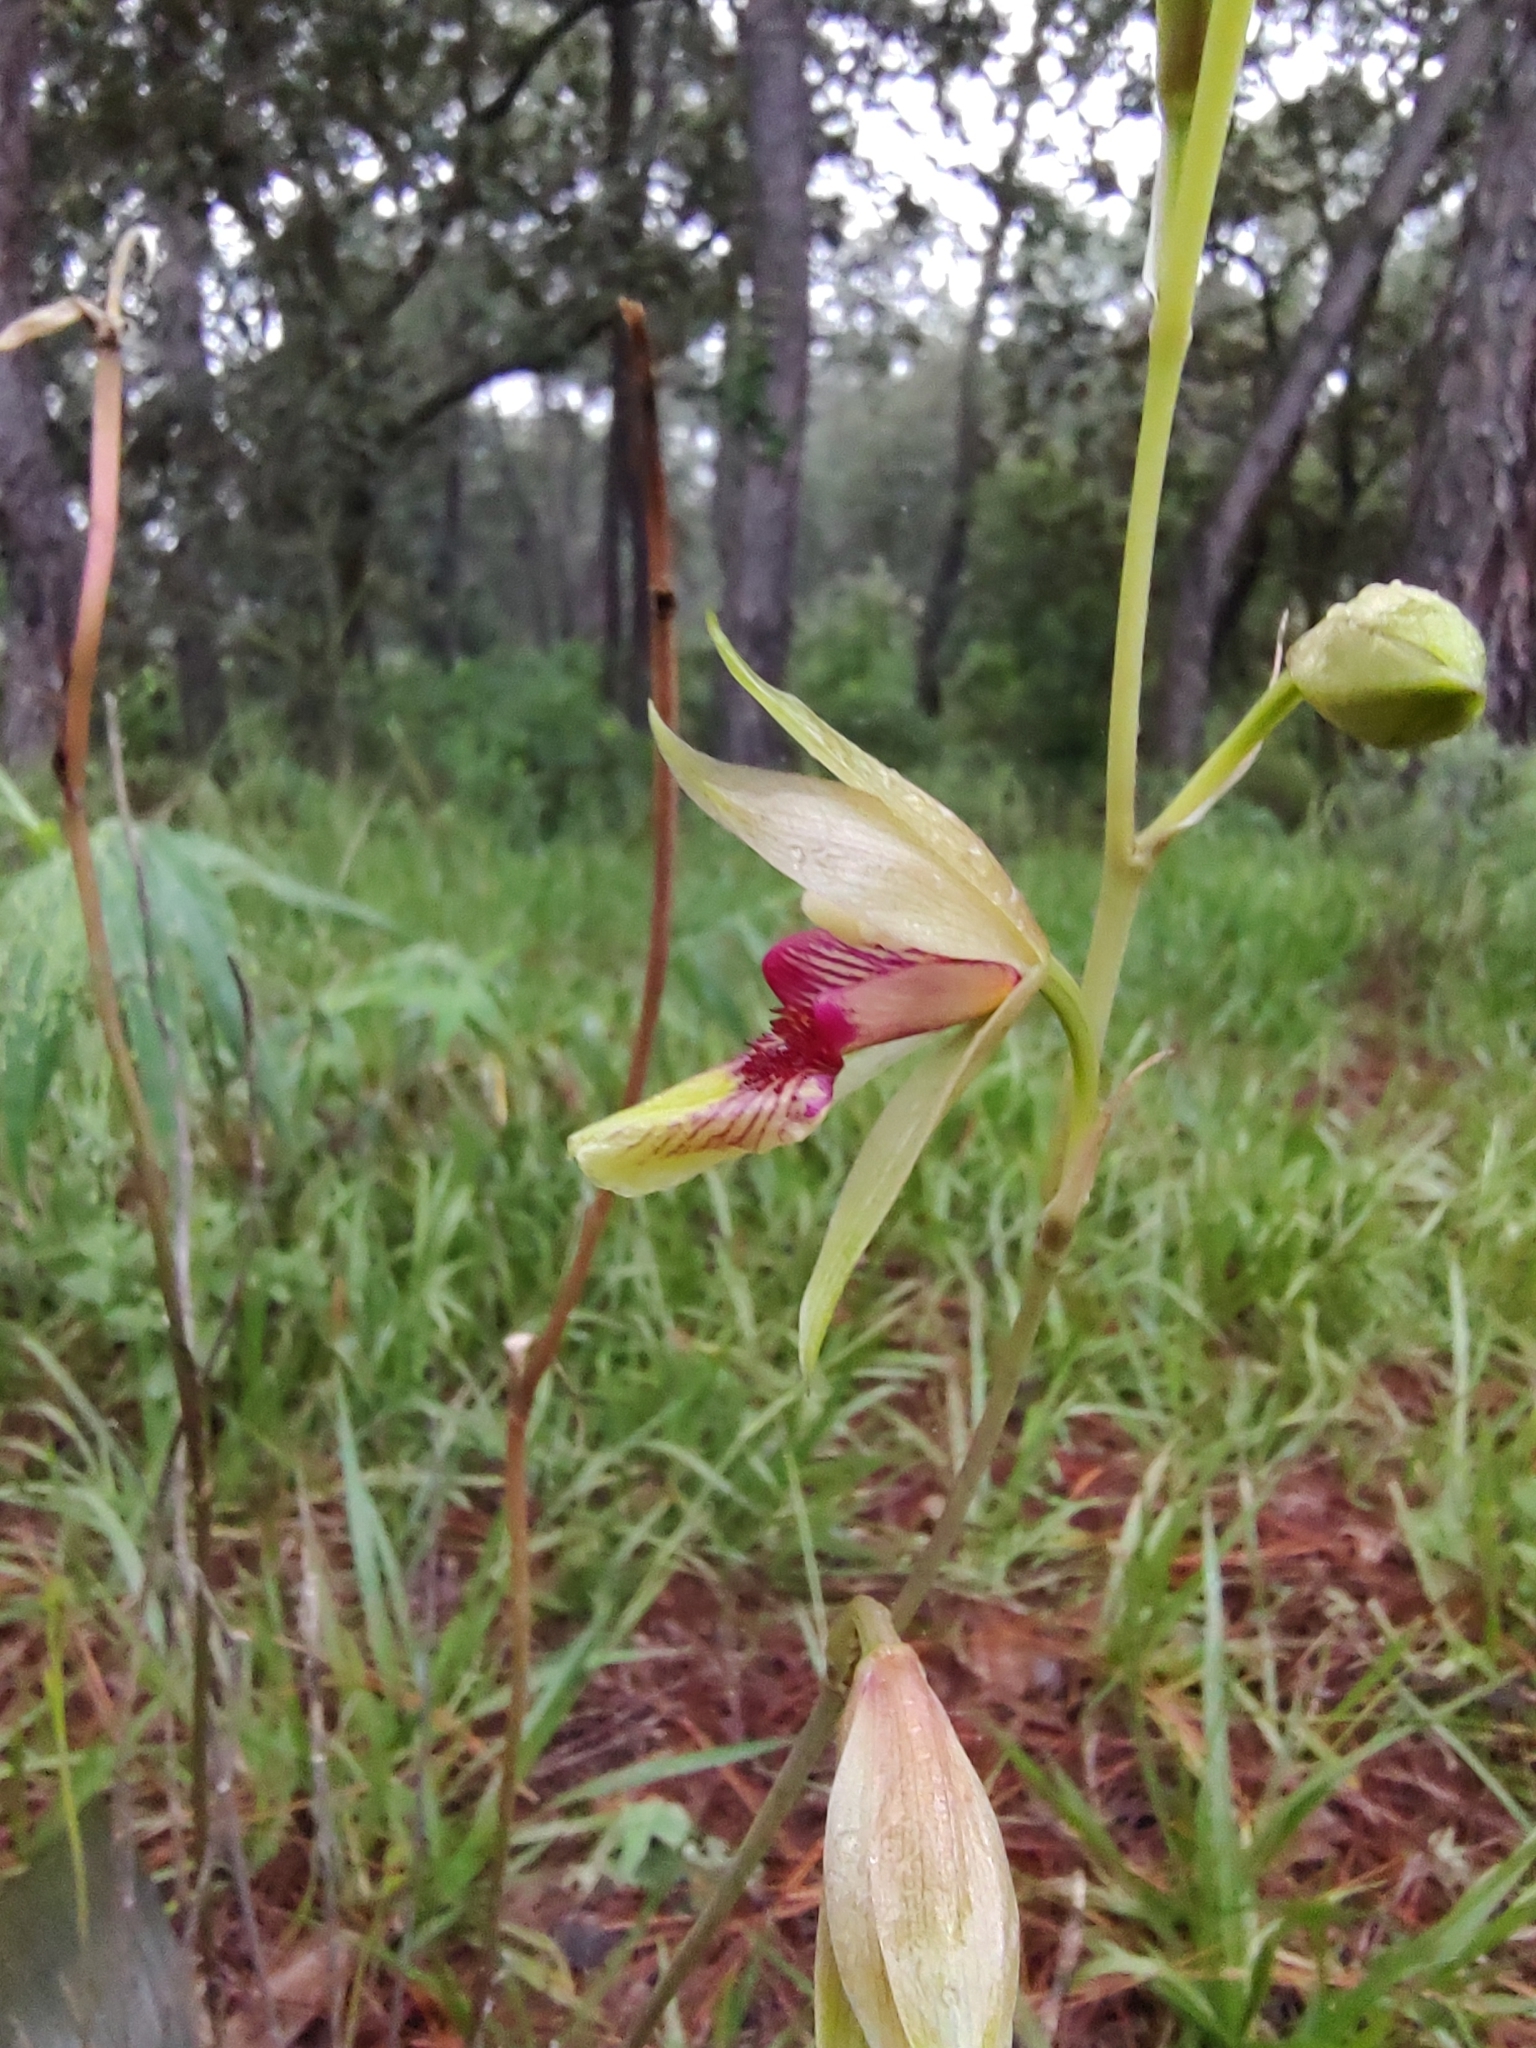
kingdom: Plantae
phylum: Tracheophyta
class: Liliopsida
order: Asparagales
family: Orchidaceae
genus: Bletia
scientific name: Bletia roezlii
